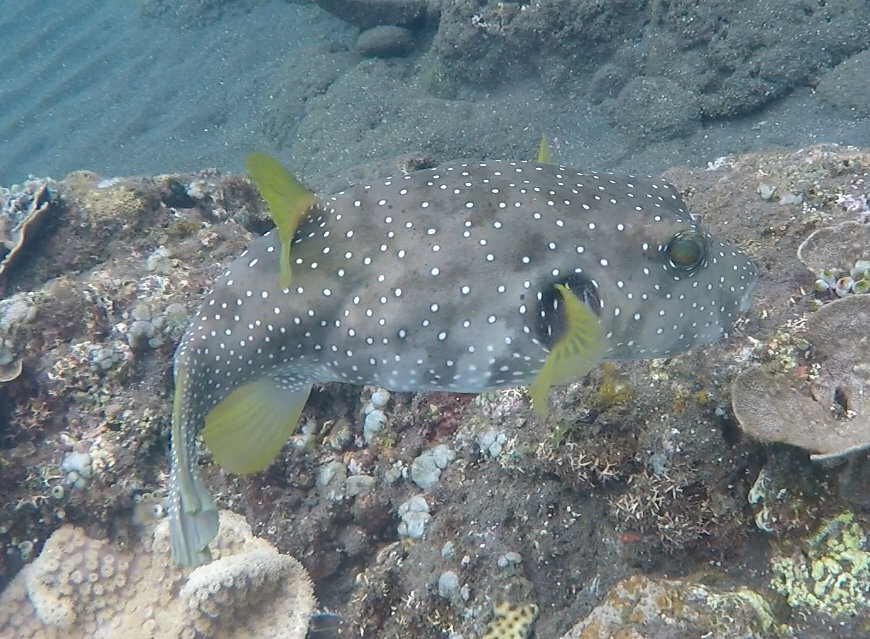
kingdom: Animalia
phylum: Chordata
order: Tetraodontiformes
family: Tetraodontidae
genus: Arothron
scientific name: Arothron hispidus
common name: Stripebelly puffer
